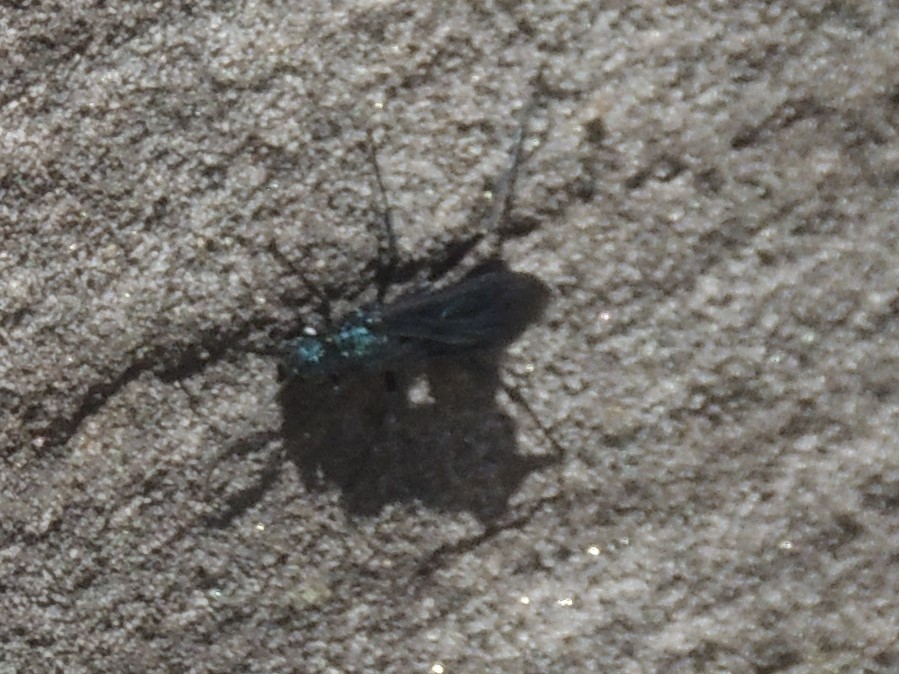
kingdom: Animalia
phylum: Arthropoda
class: Insecta
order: Hymenoptera
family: Sphecidae
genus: Chalybion
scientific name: Chalybion californicum
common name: Mud dauber
